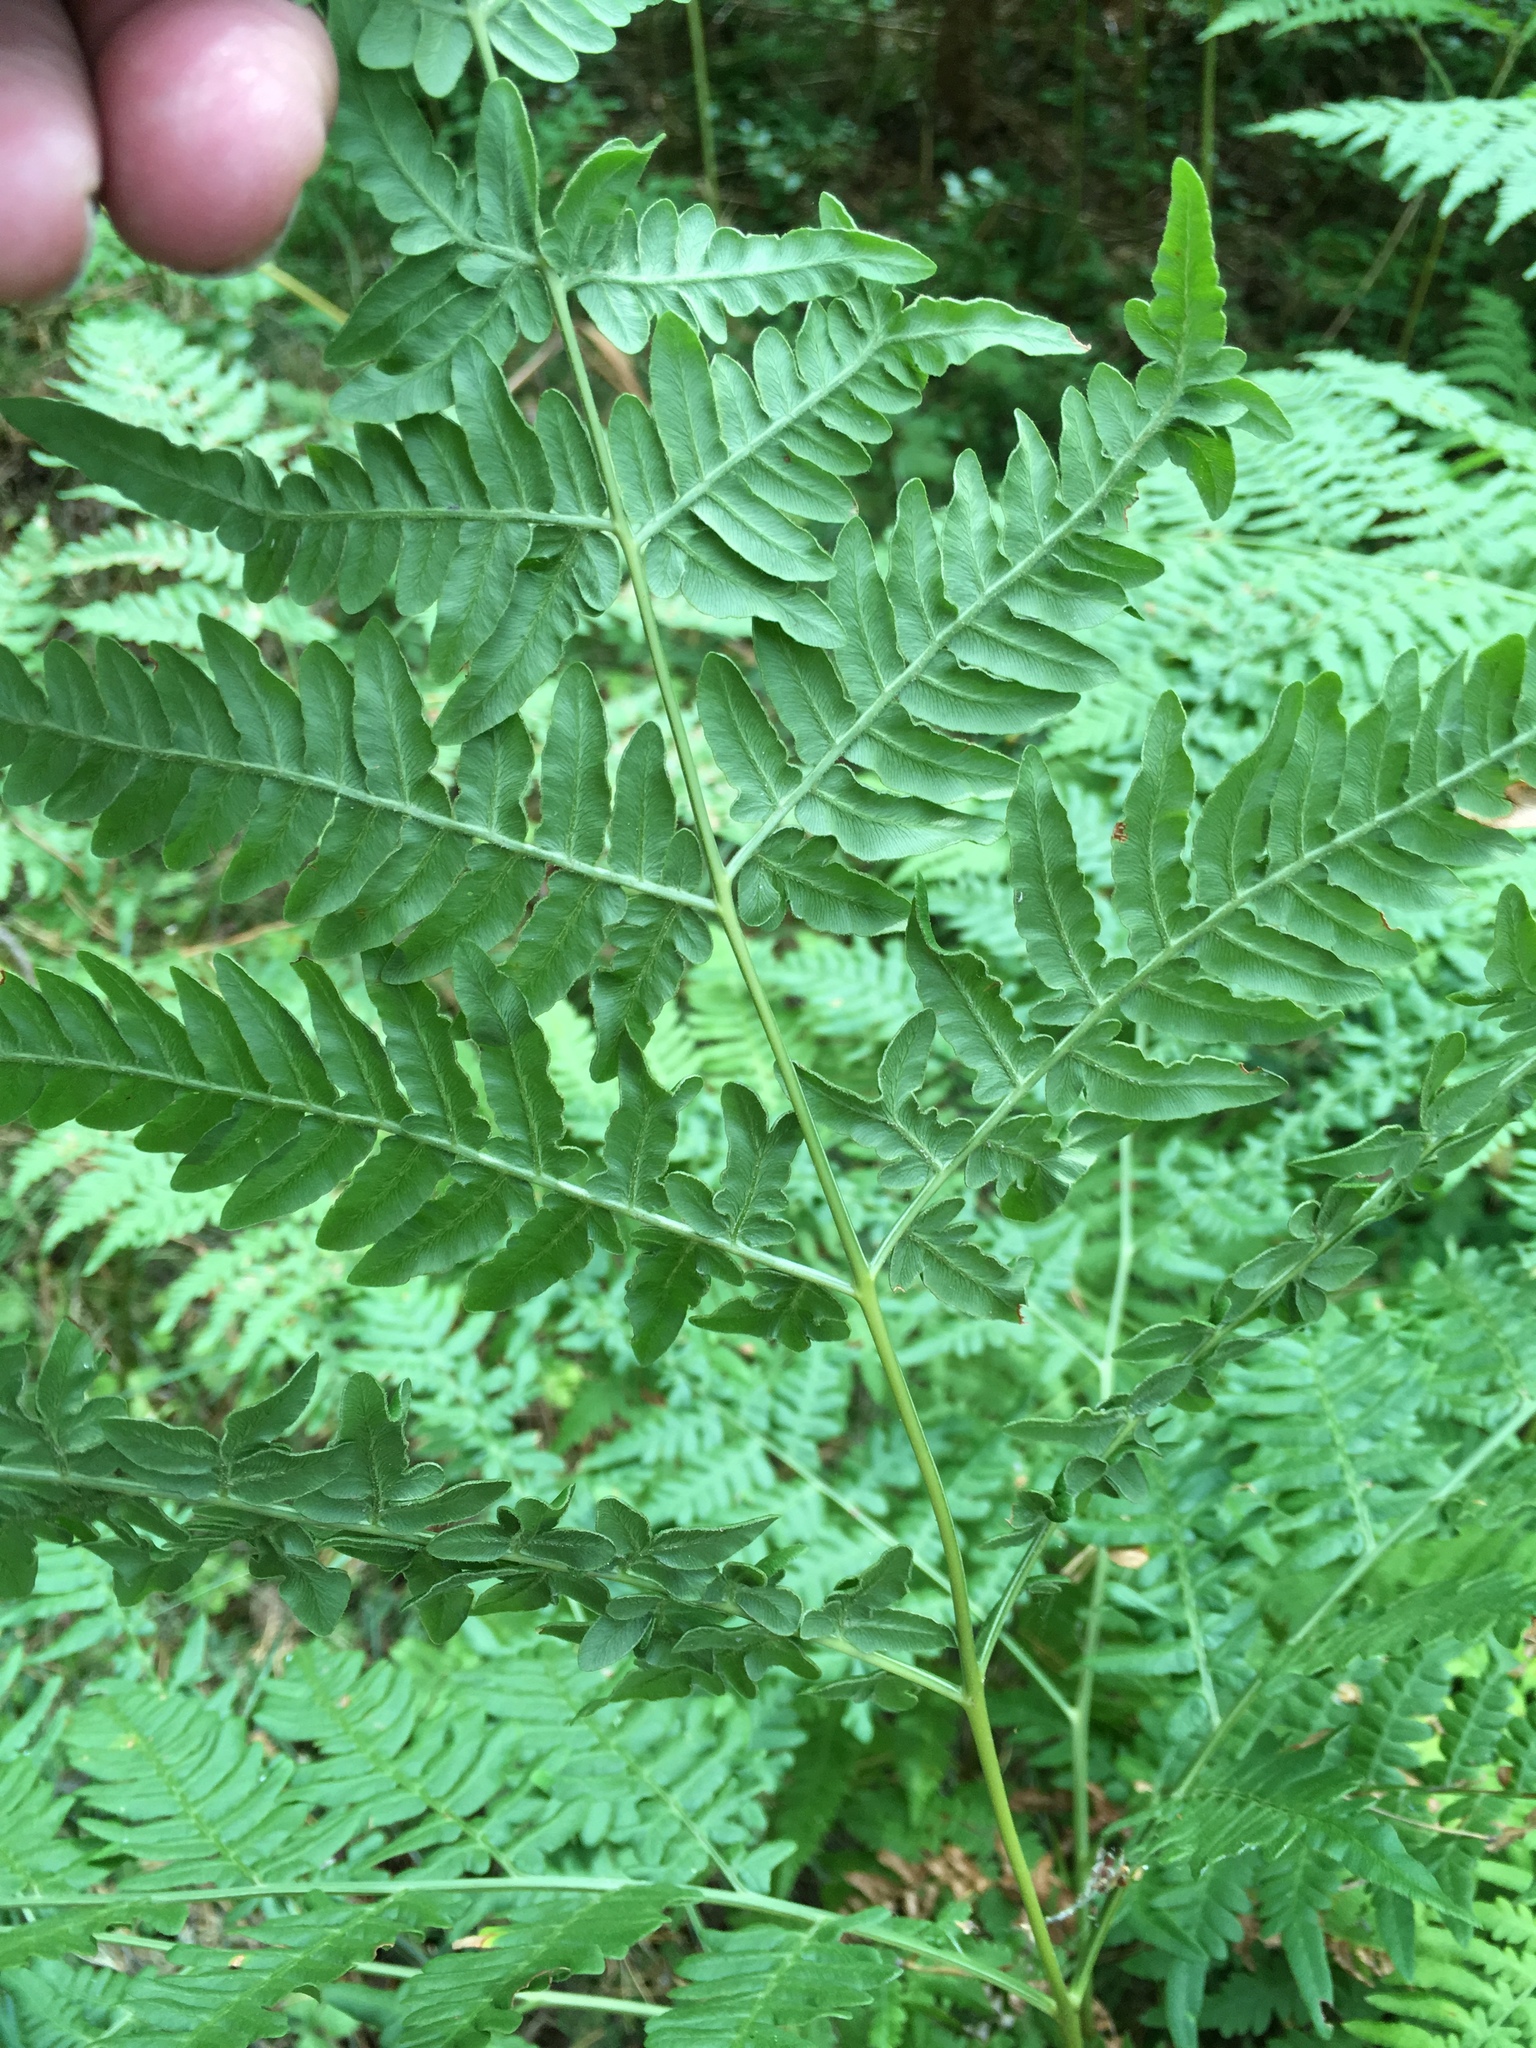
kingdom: Plantae
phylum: Tracheophyta
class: Polypodiopsida
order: Polypodiales
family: Dennstaedtiaceae
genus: Pteridium
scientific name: Pteridium aquilinum
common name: Bracken
